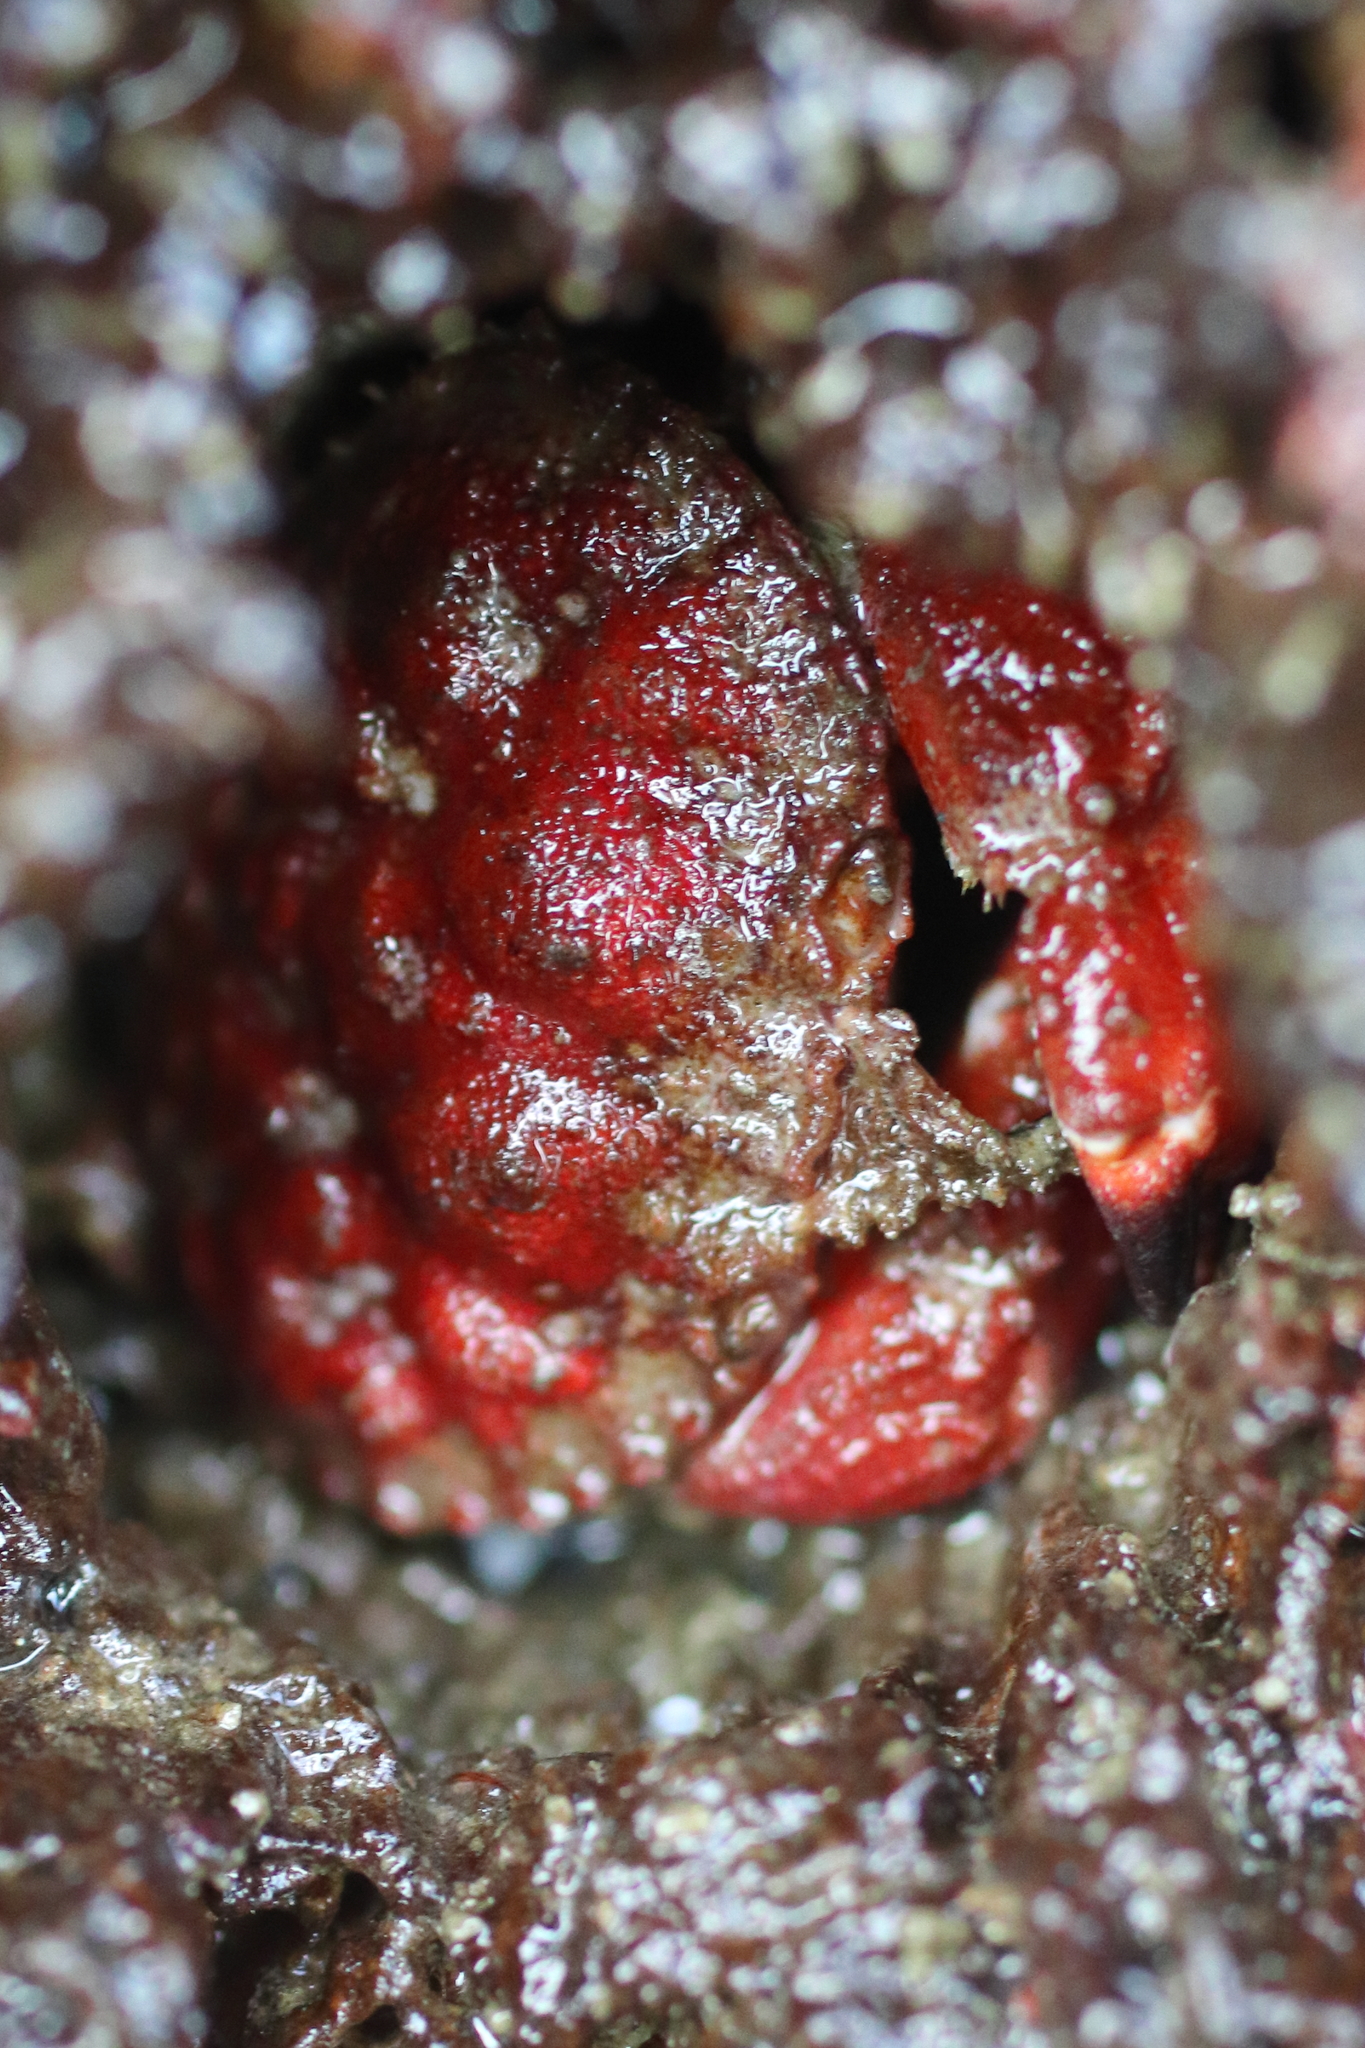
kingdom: Animalia
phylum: Arthropoda
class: Malacostraca
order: Decapoda
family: Cancridae
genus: Glebocarcinus
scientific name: Glebocarcinus oregonensis
